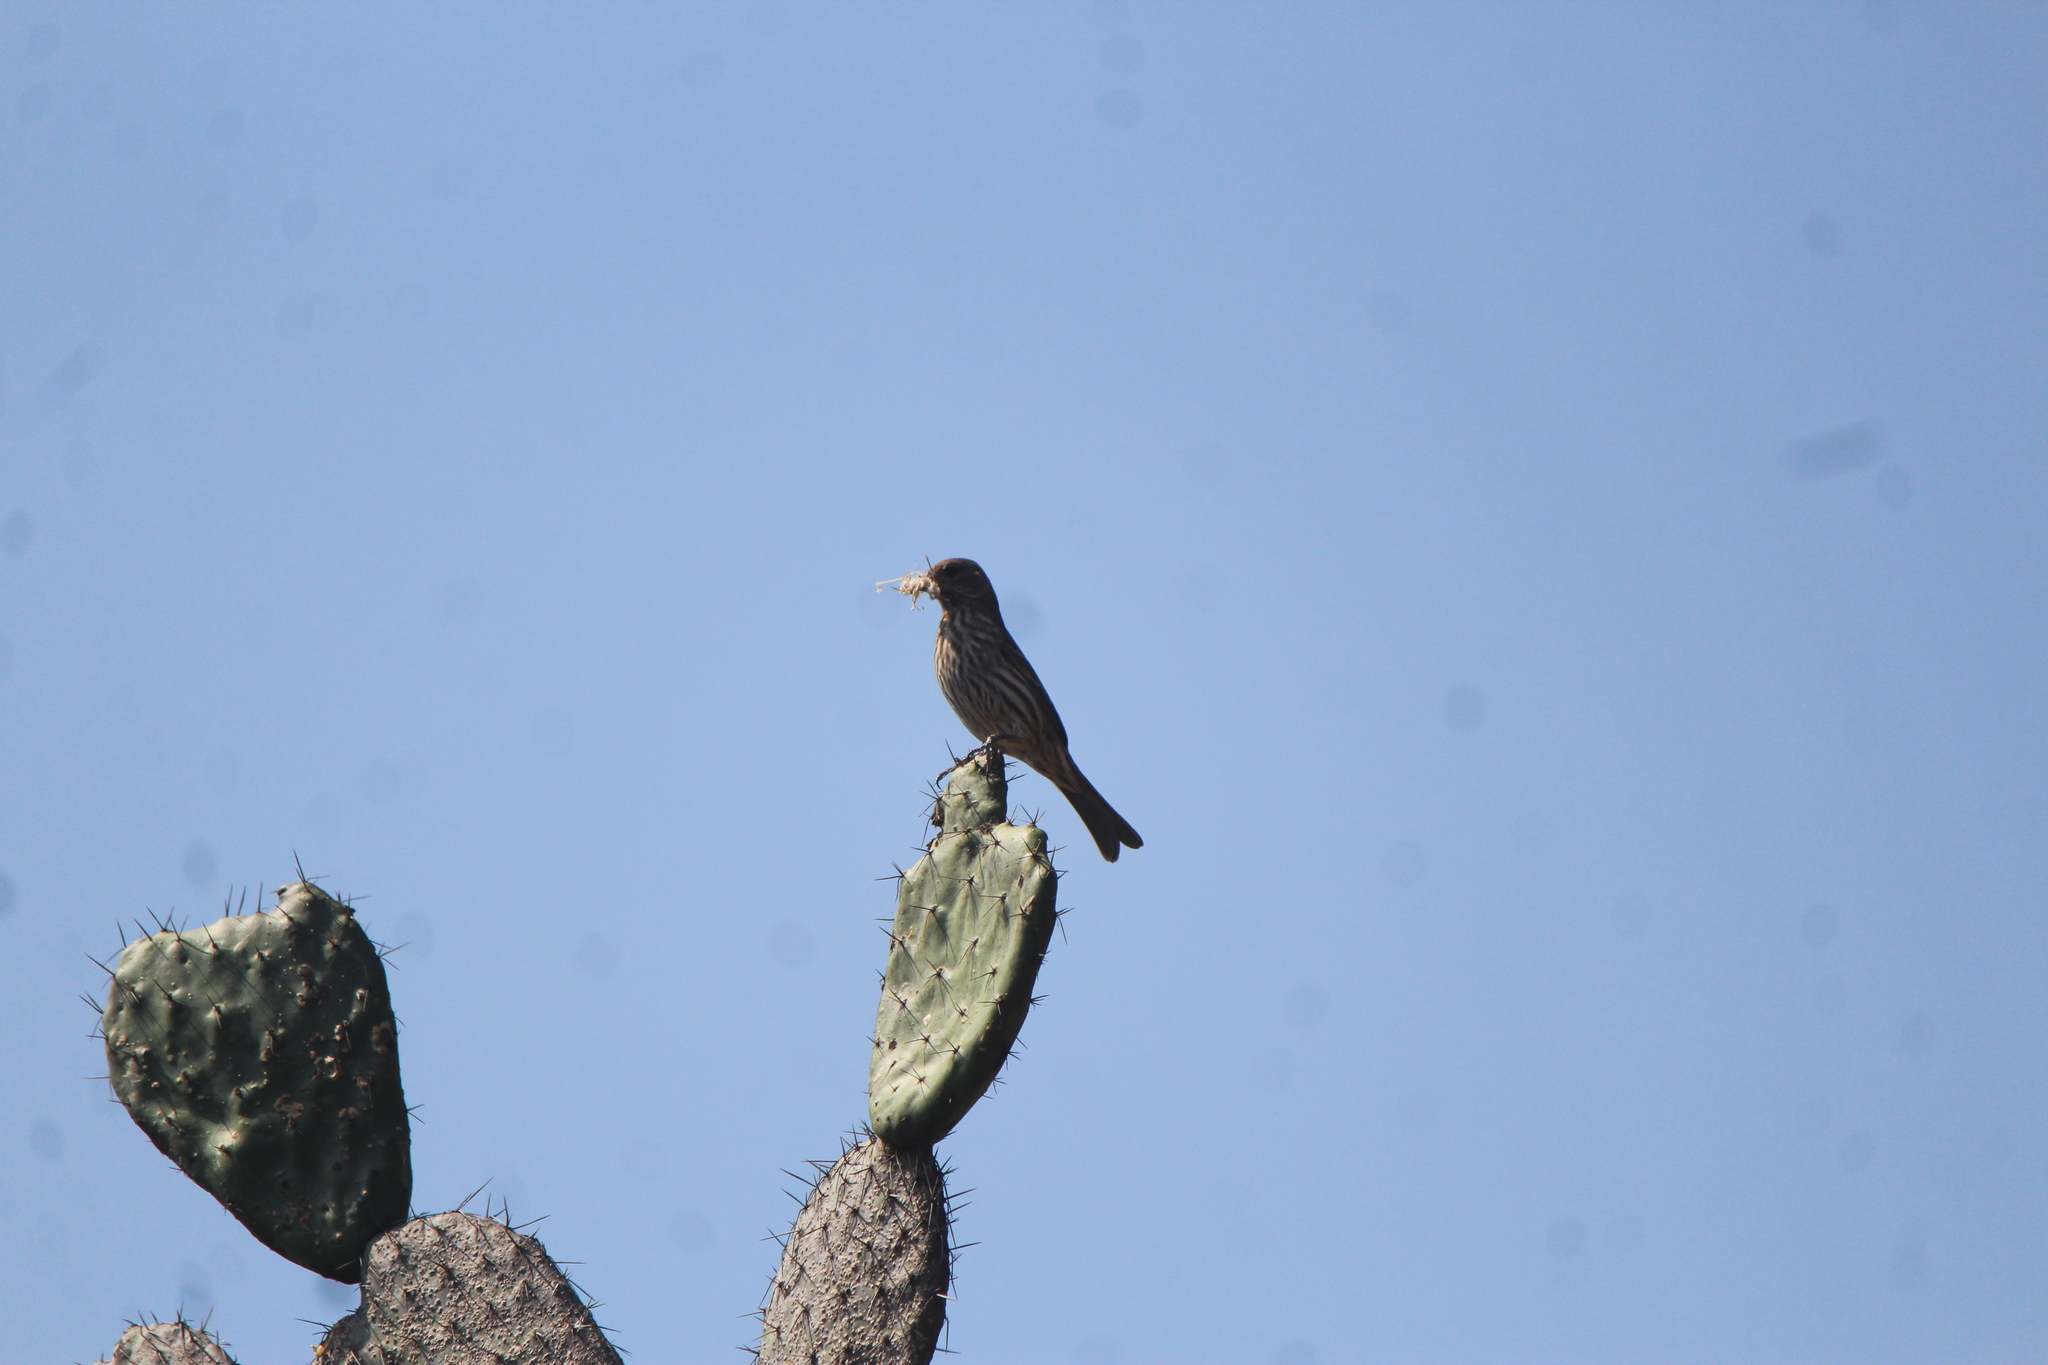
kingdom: Animalia
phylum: Chordata
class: Aves
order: Passeriformes
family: Fringillidae
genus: Haemorhous
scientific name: Haemorhous mexicanus
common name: House finch
